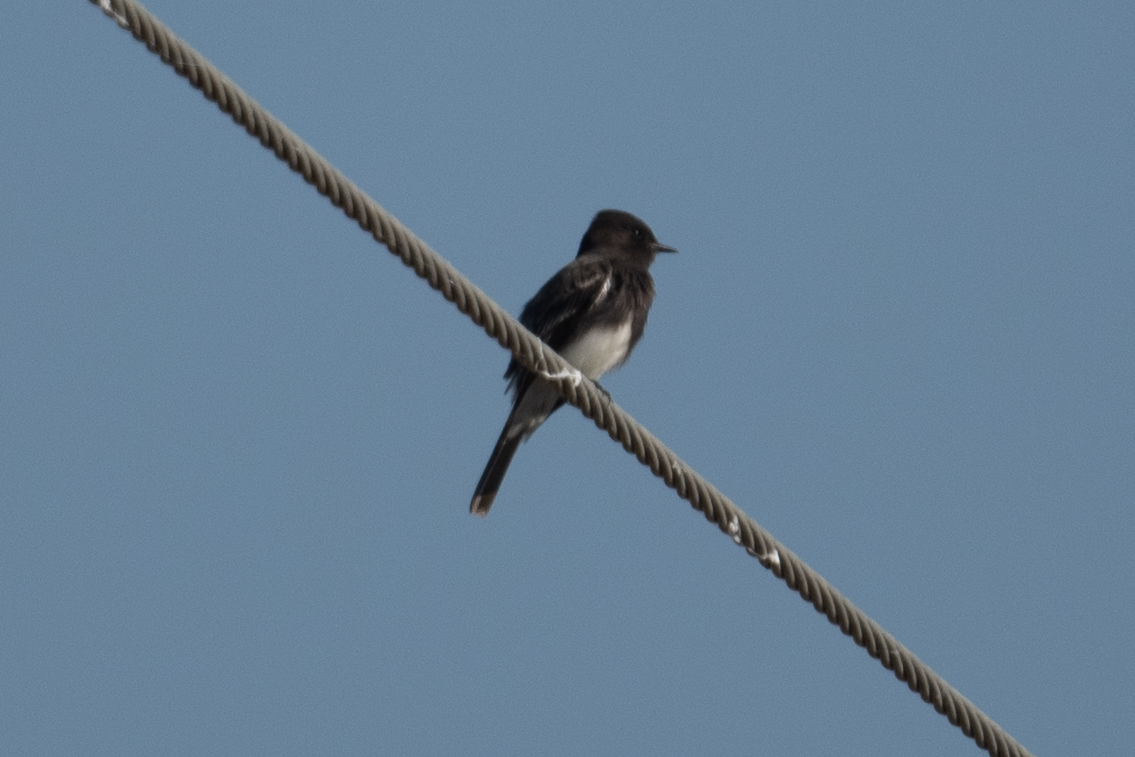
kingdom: Animalia
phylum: Chordata
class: Aves
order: Passeriformes
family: Tyrannidae
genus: Sayornis
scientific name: Sayornis nigricans
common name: Black phoebe
